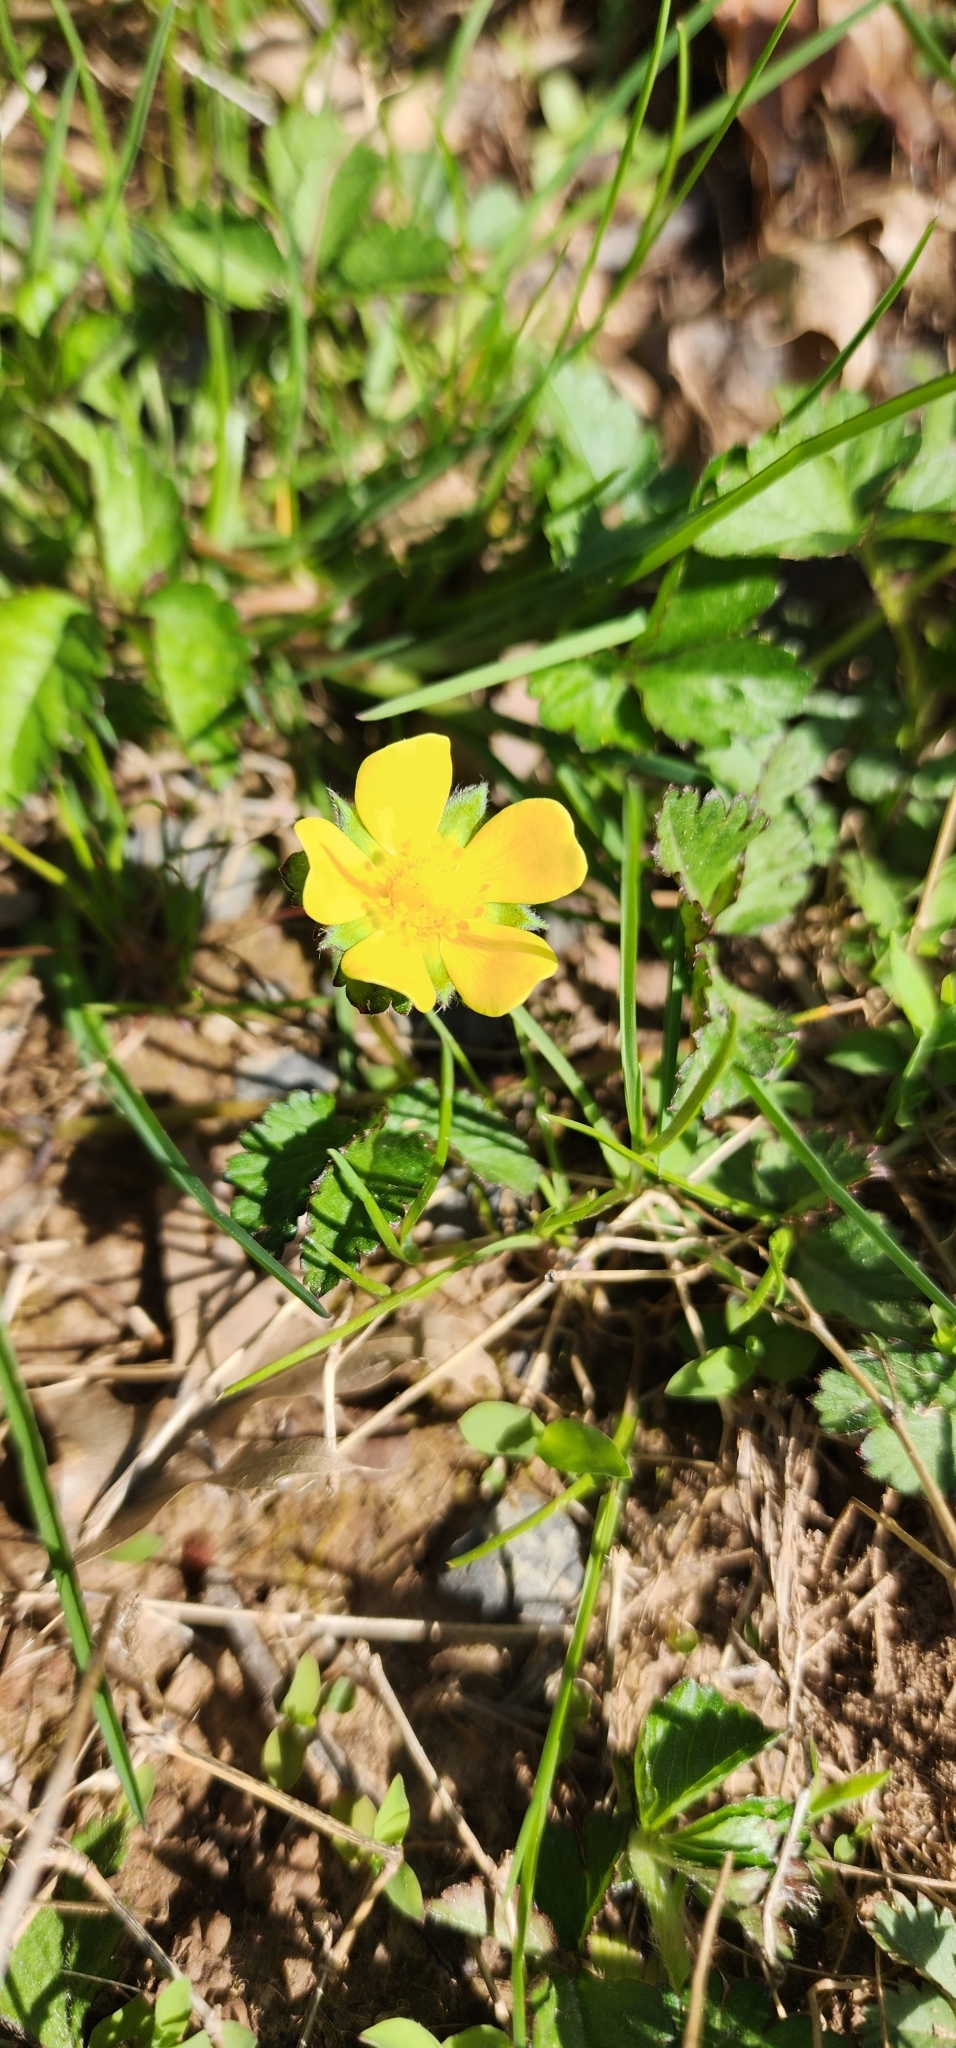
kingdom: Plantae
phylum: Tracheophyta
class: Magnoliopsida
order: Rosales
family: Rosaceae
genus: Potentilla
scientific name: Potentilla indica
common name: Yellow-flowered strawberry
